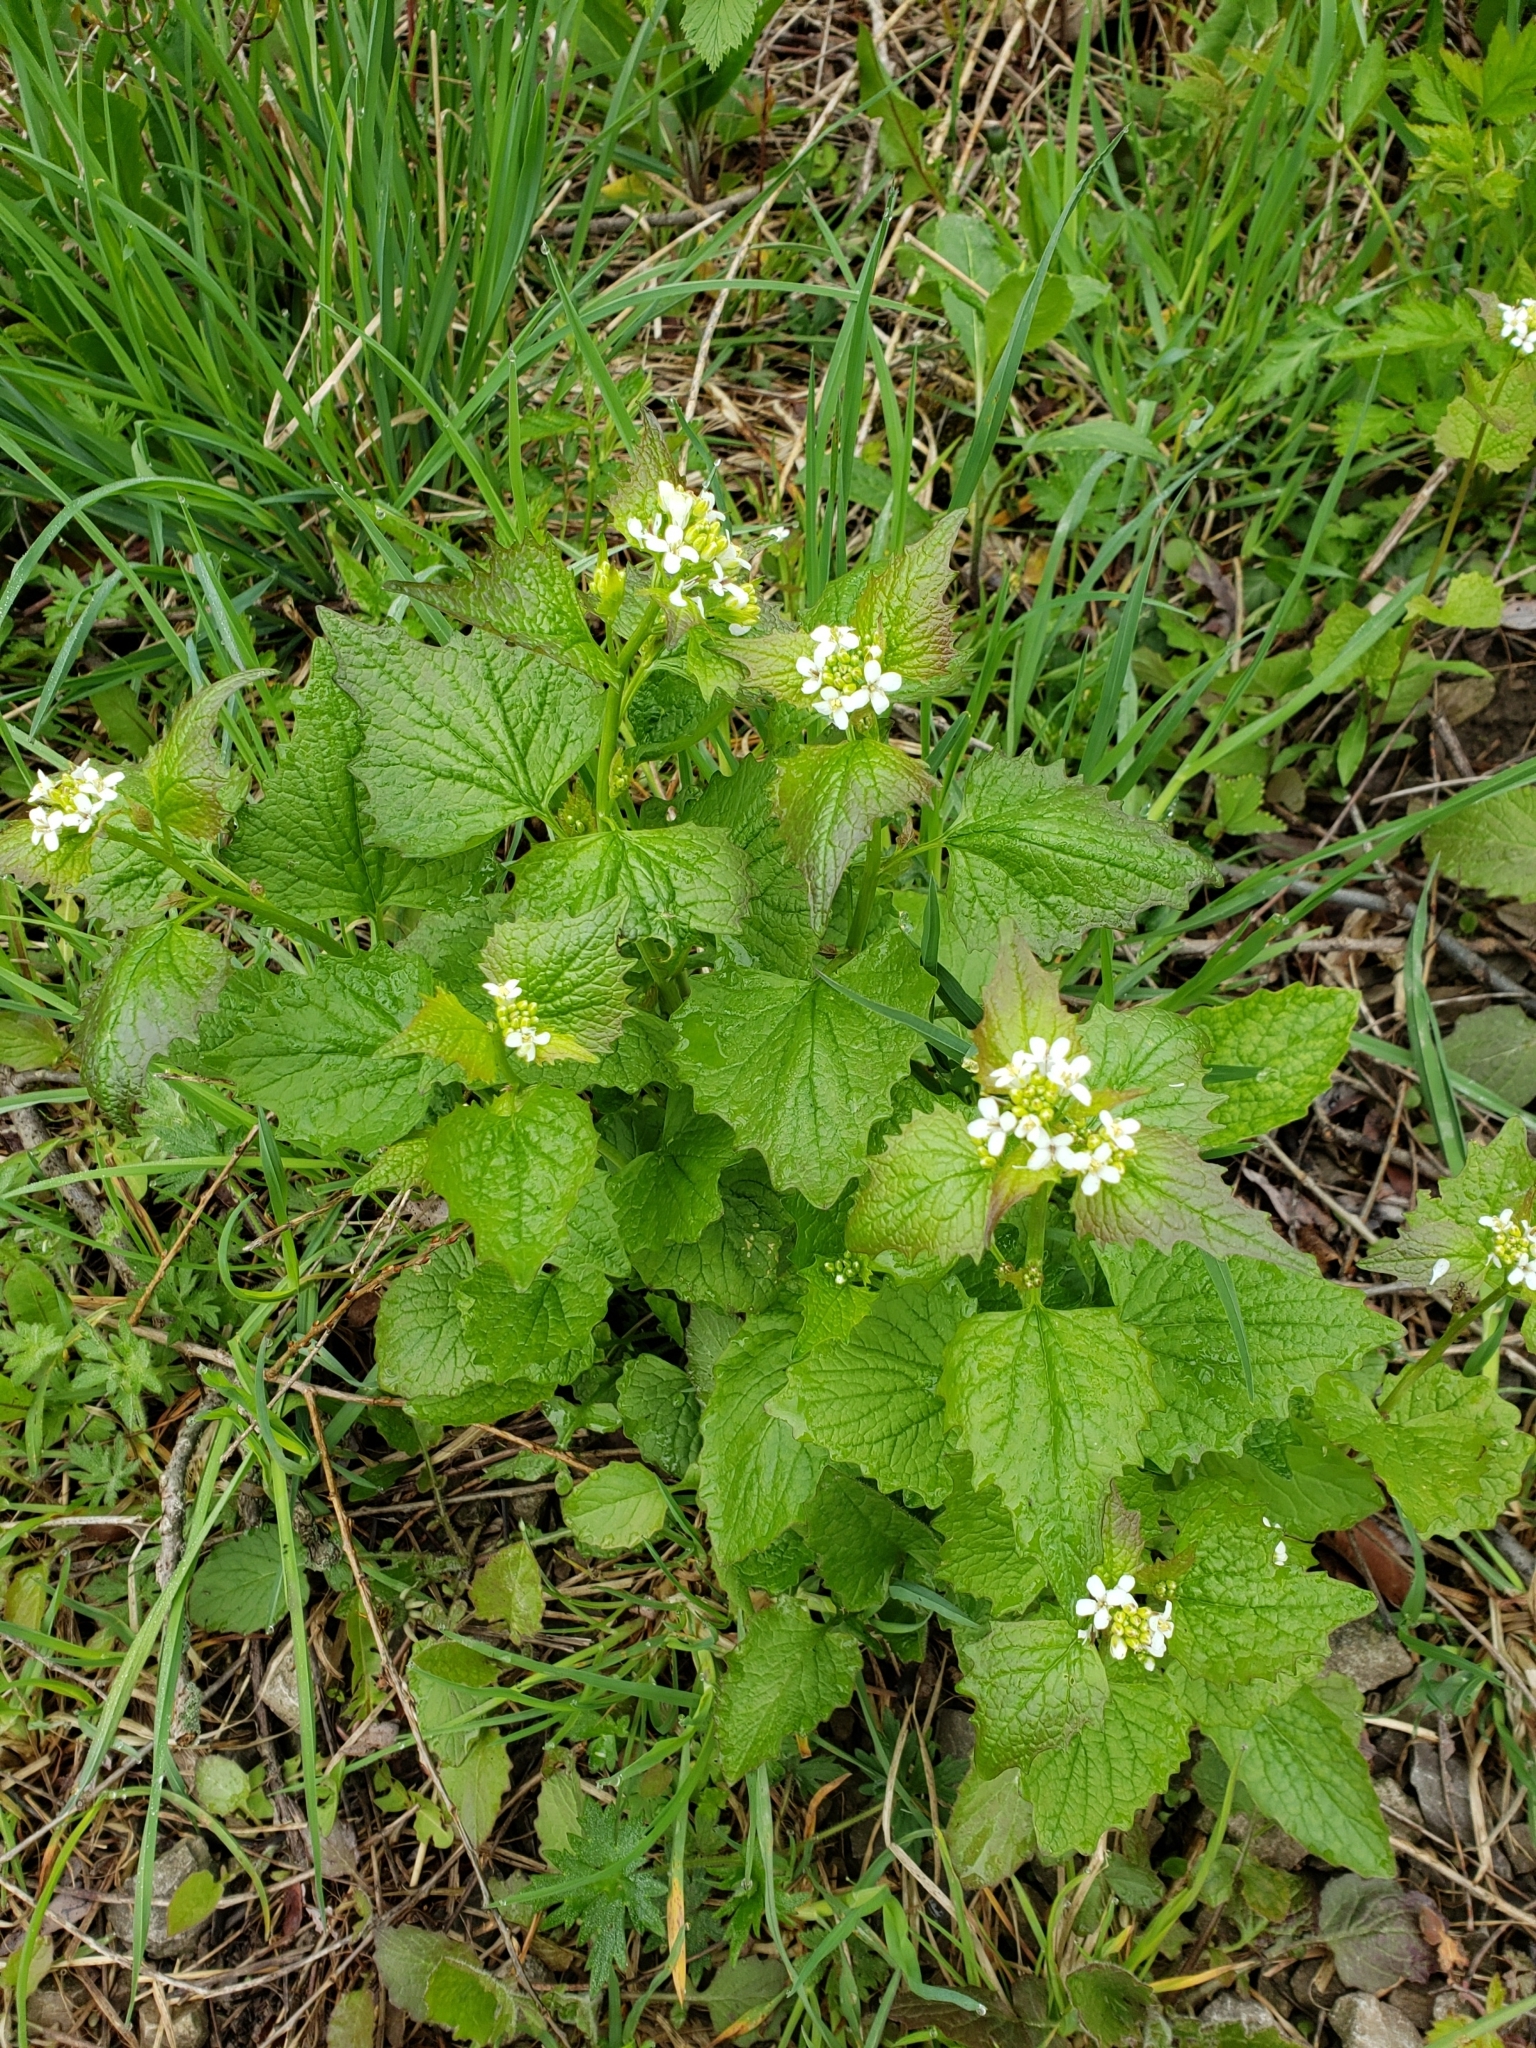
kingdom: Plantae
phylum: Tracheophyta
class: Magnoliopsida
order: Brassicales
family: Brassicaceae
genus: Alliaria
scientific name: Alliaria petiolata
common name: Garlic mustard
